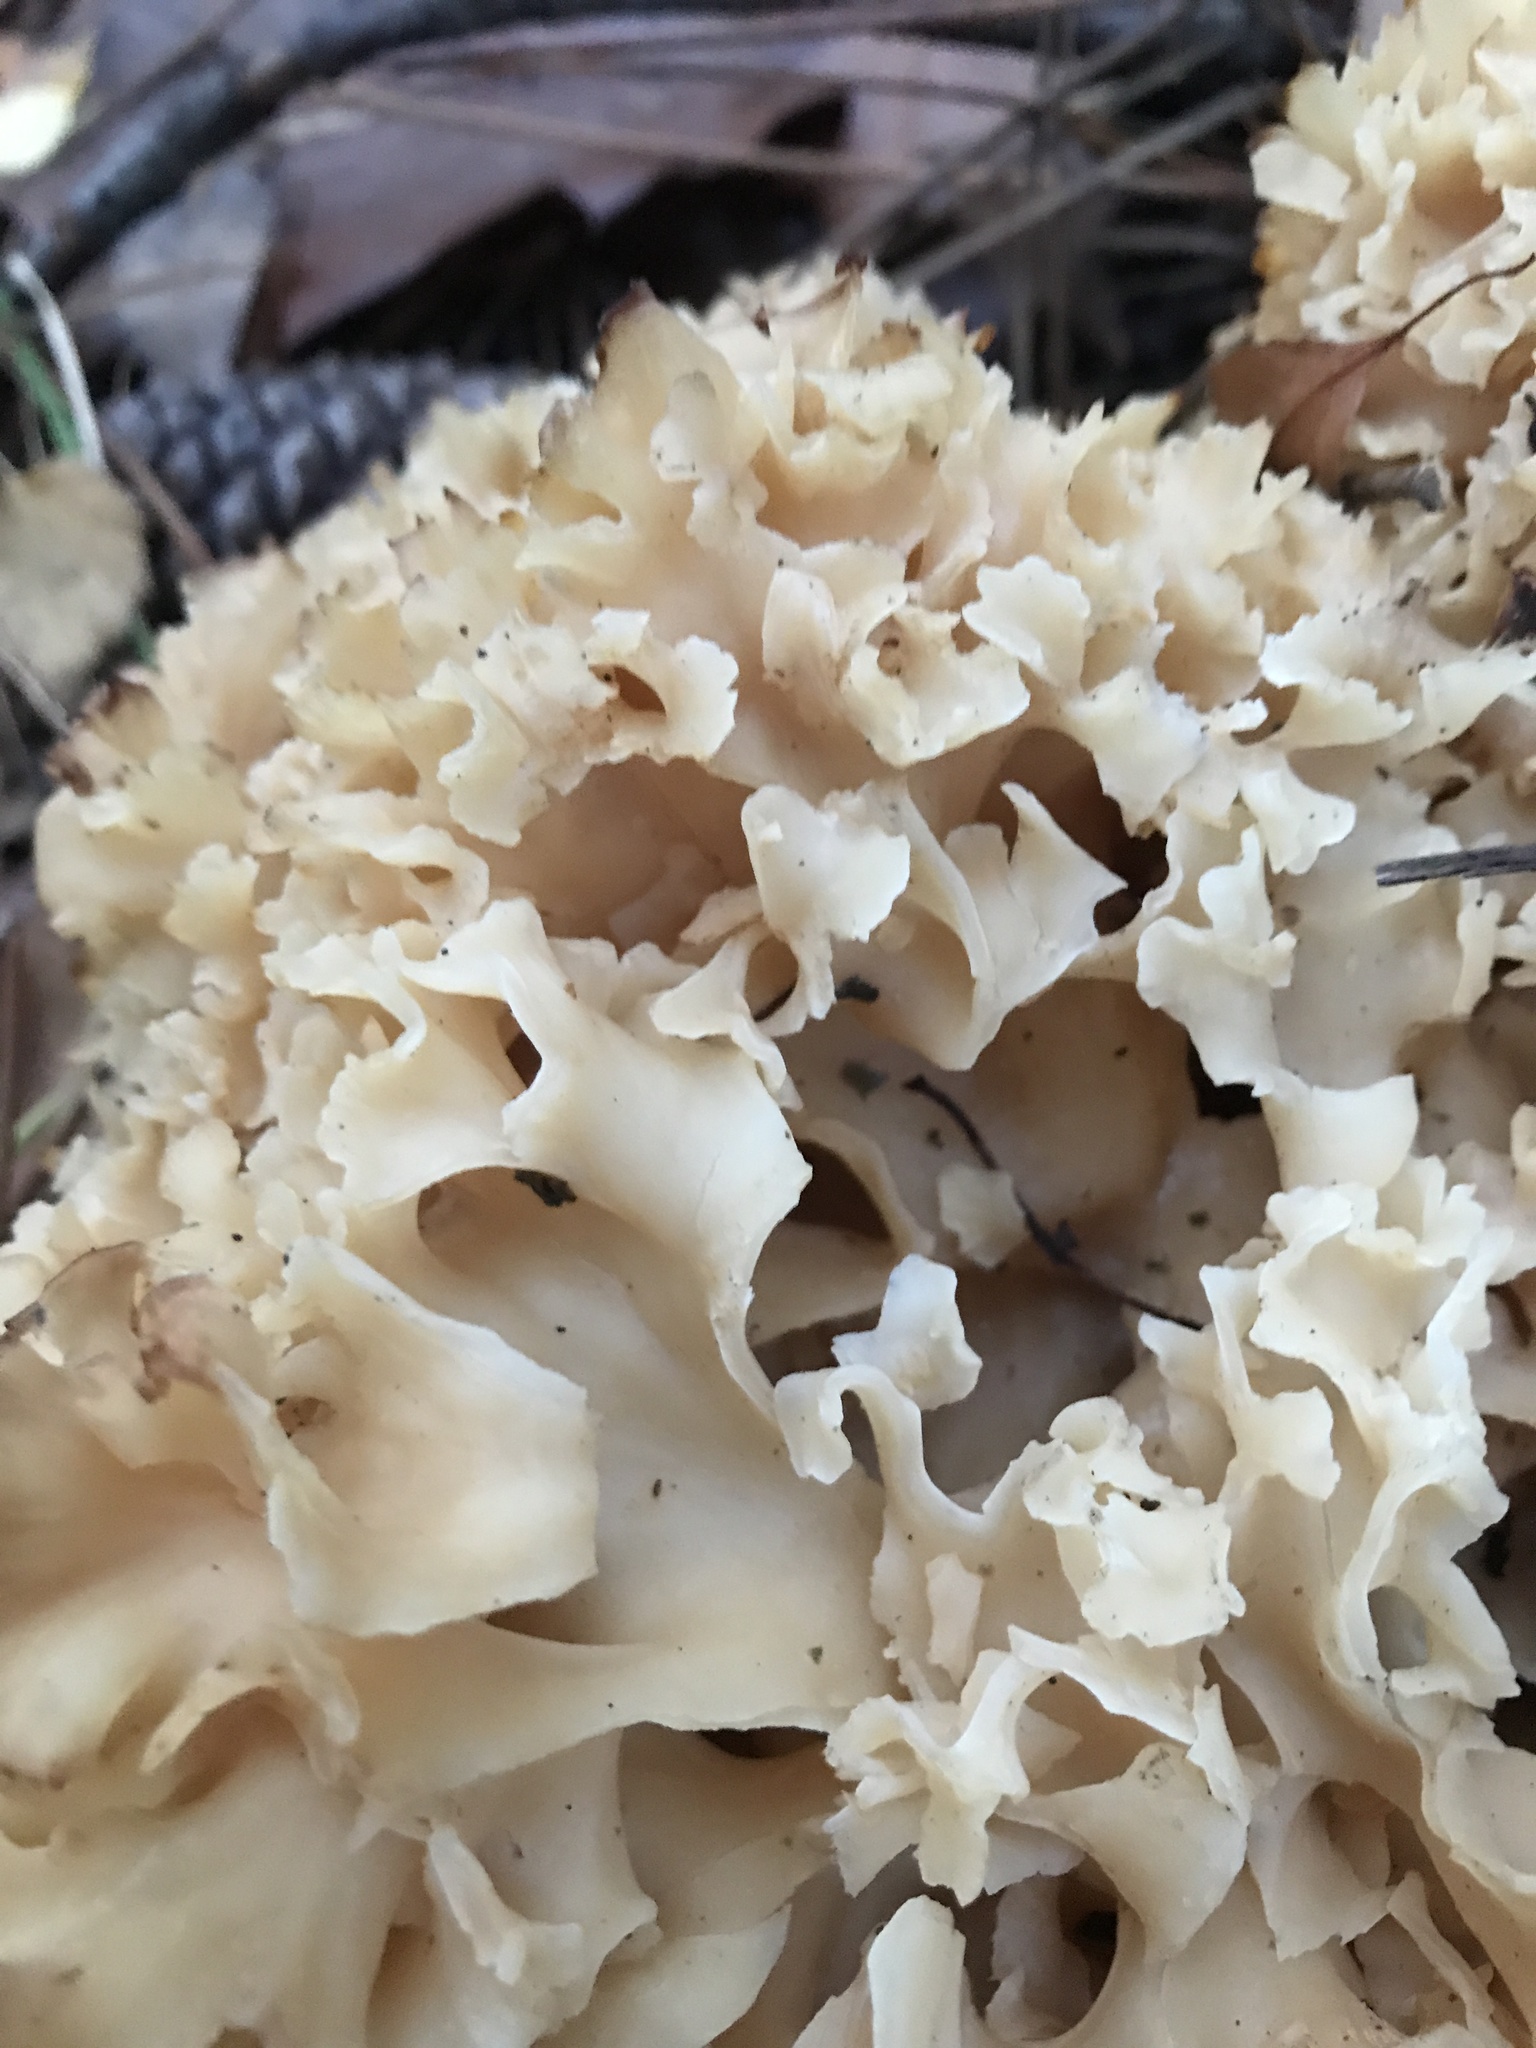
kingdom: Fungi
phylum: Basidiomycota
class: Agaricomycetes
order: Polyporales
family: Sparassidaceae
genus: Sparassis
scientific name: Sparassis crispa
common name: Brain fungus
